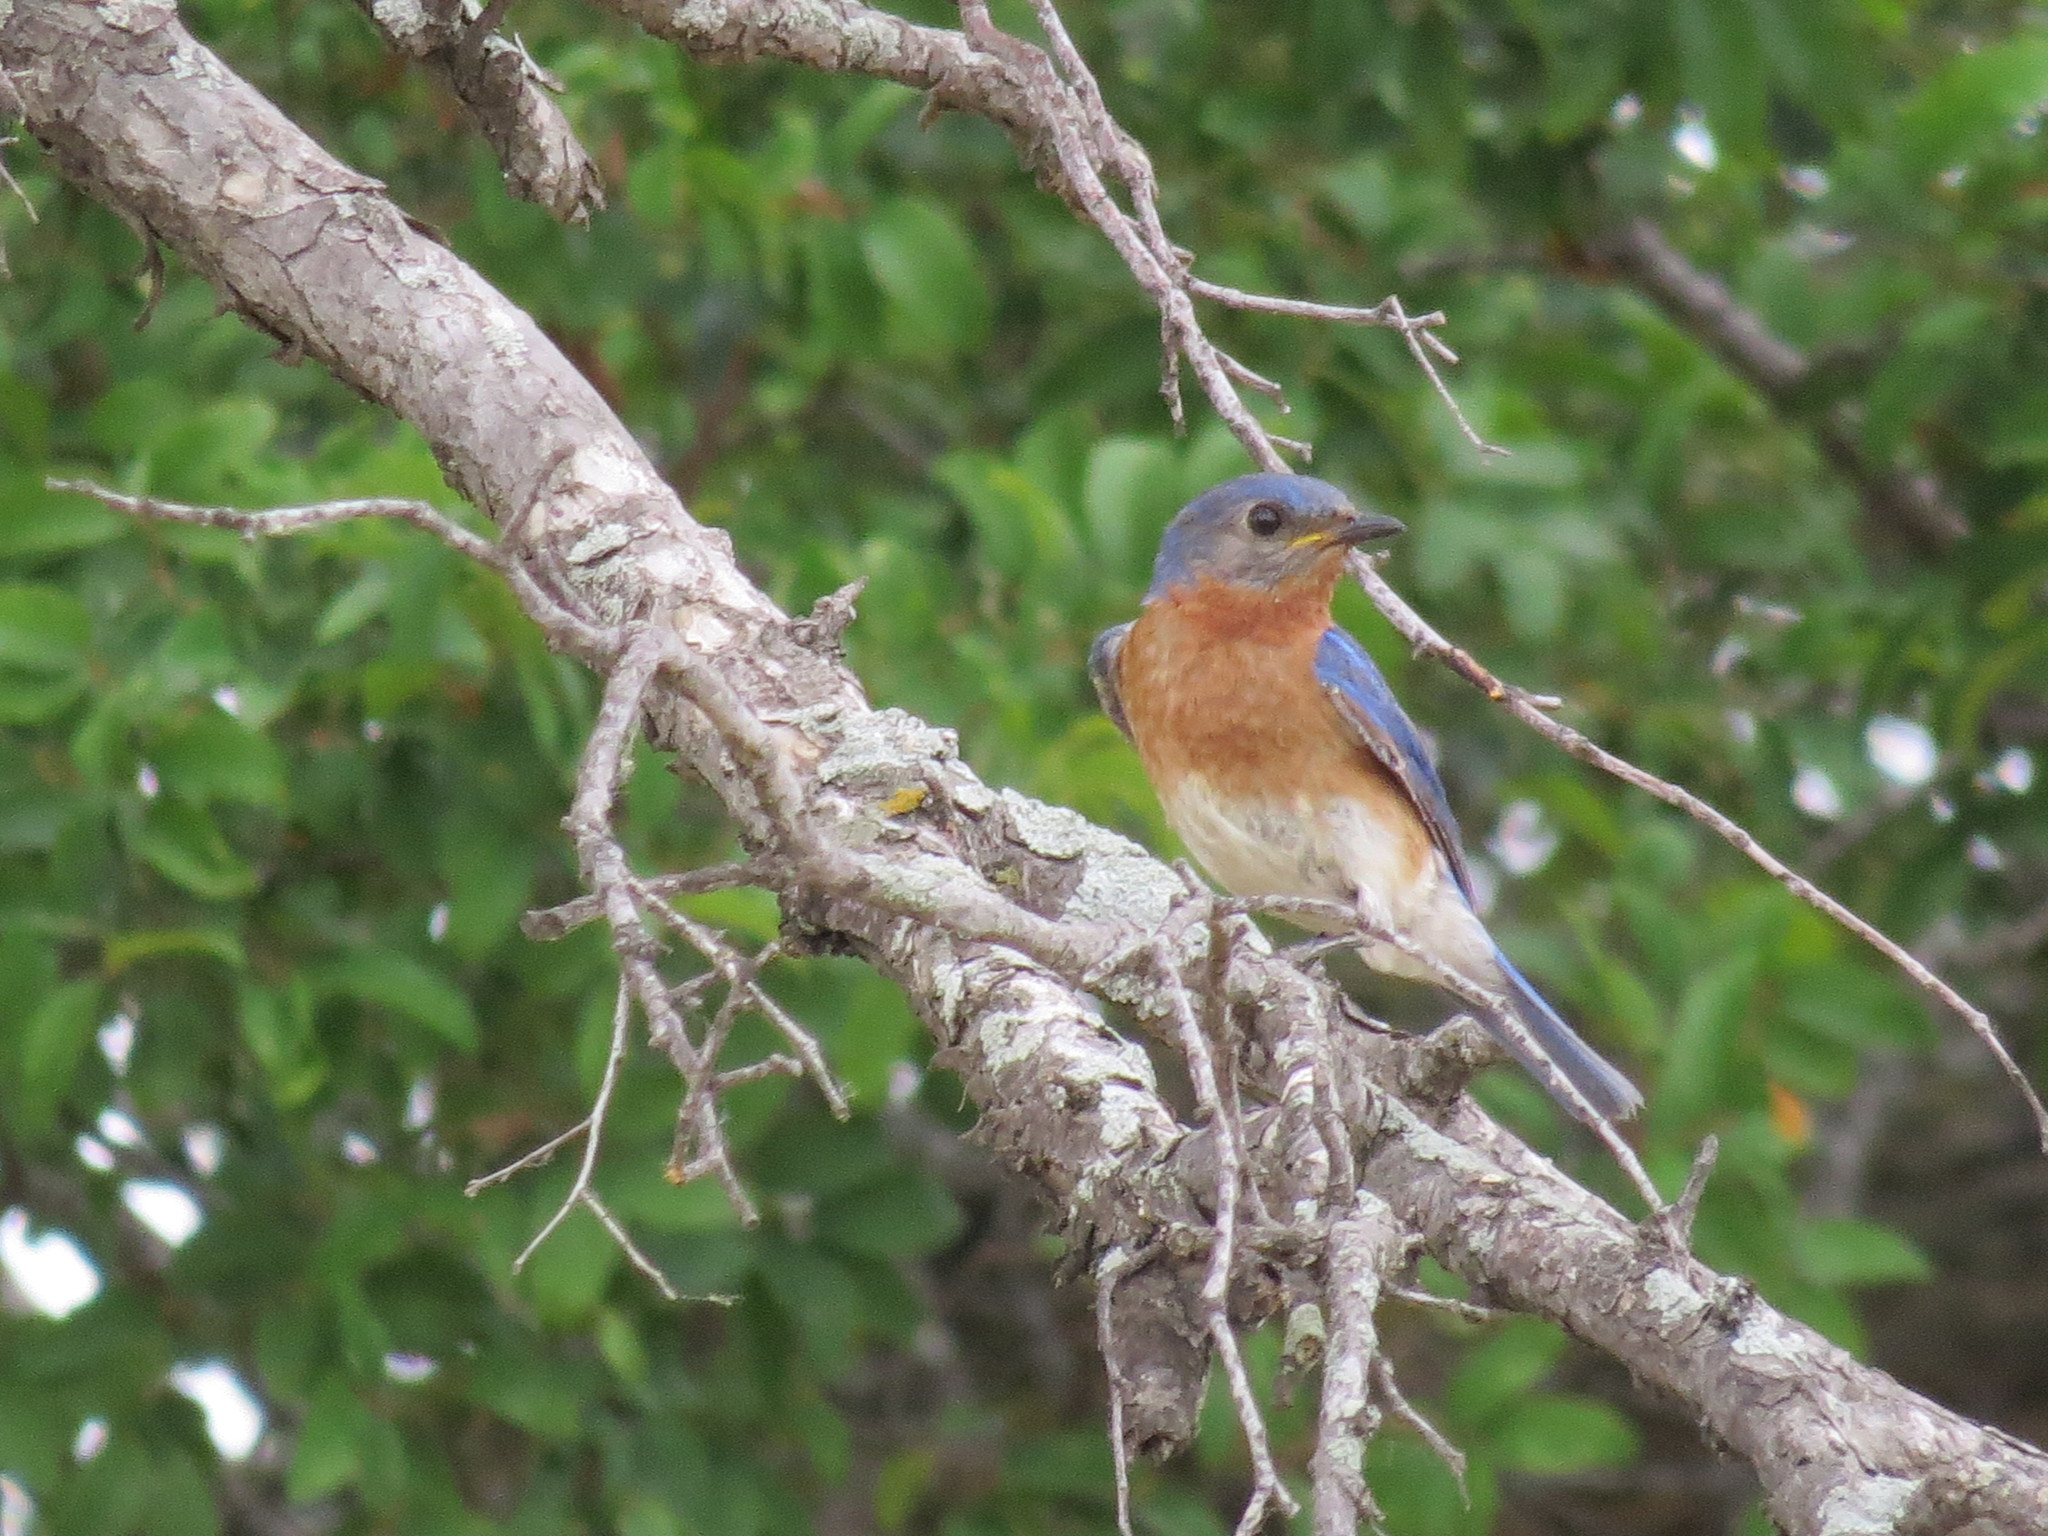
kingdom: Animalia
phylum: Chordata
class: Aves
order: Passeriformes
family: Turdidae
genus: Sialia
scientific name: Sialia sialis
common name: Eastern bluebird
